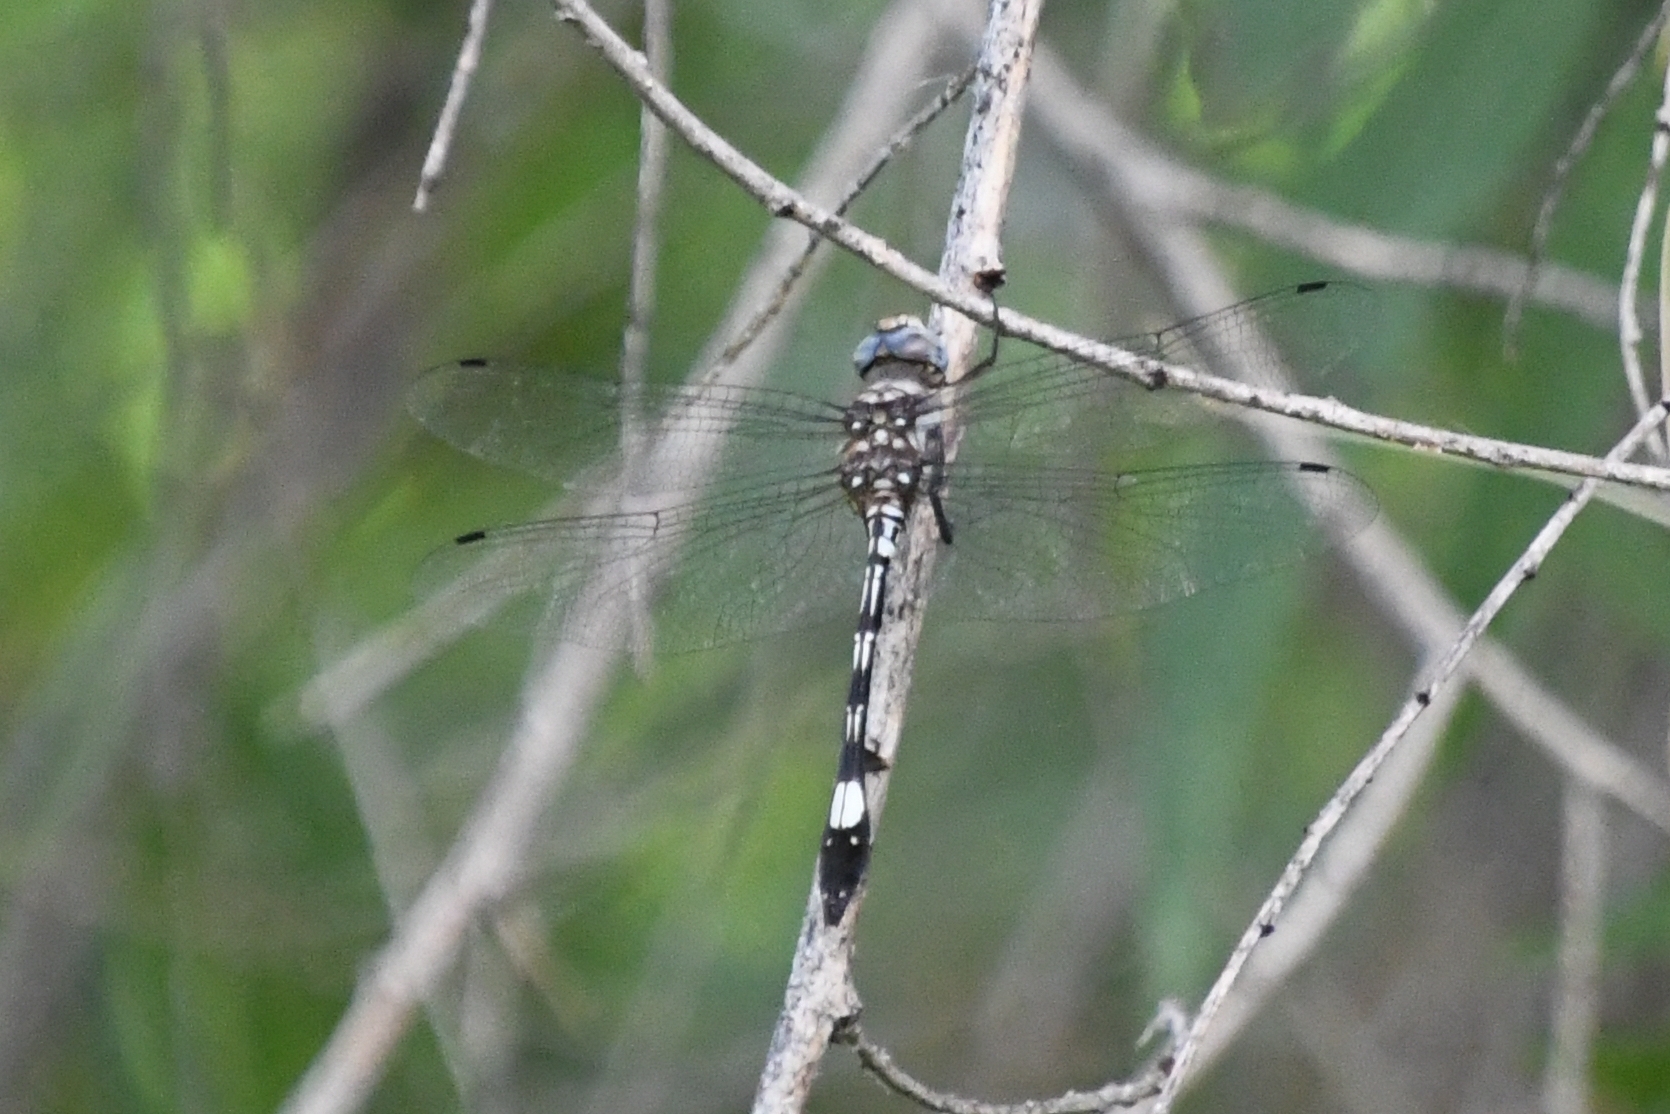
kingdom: Animalia
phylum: Arthropoda
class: Insecta
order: Odonata
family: Libellulidae
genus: Brechmorhoga
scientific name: Brechmorhoga mendax
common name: Pale-faced clubskimmer
